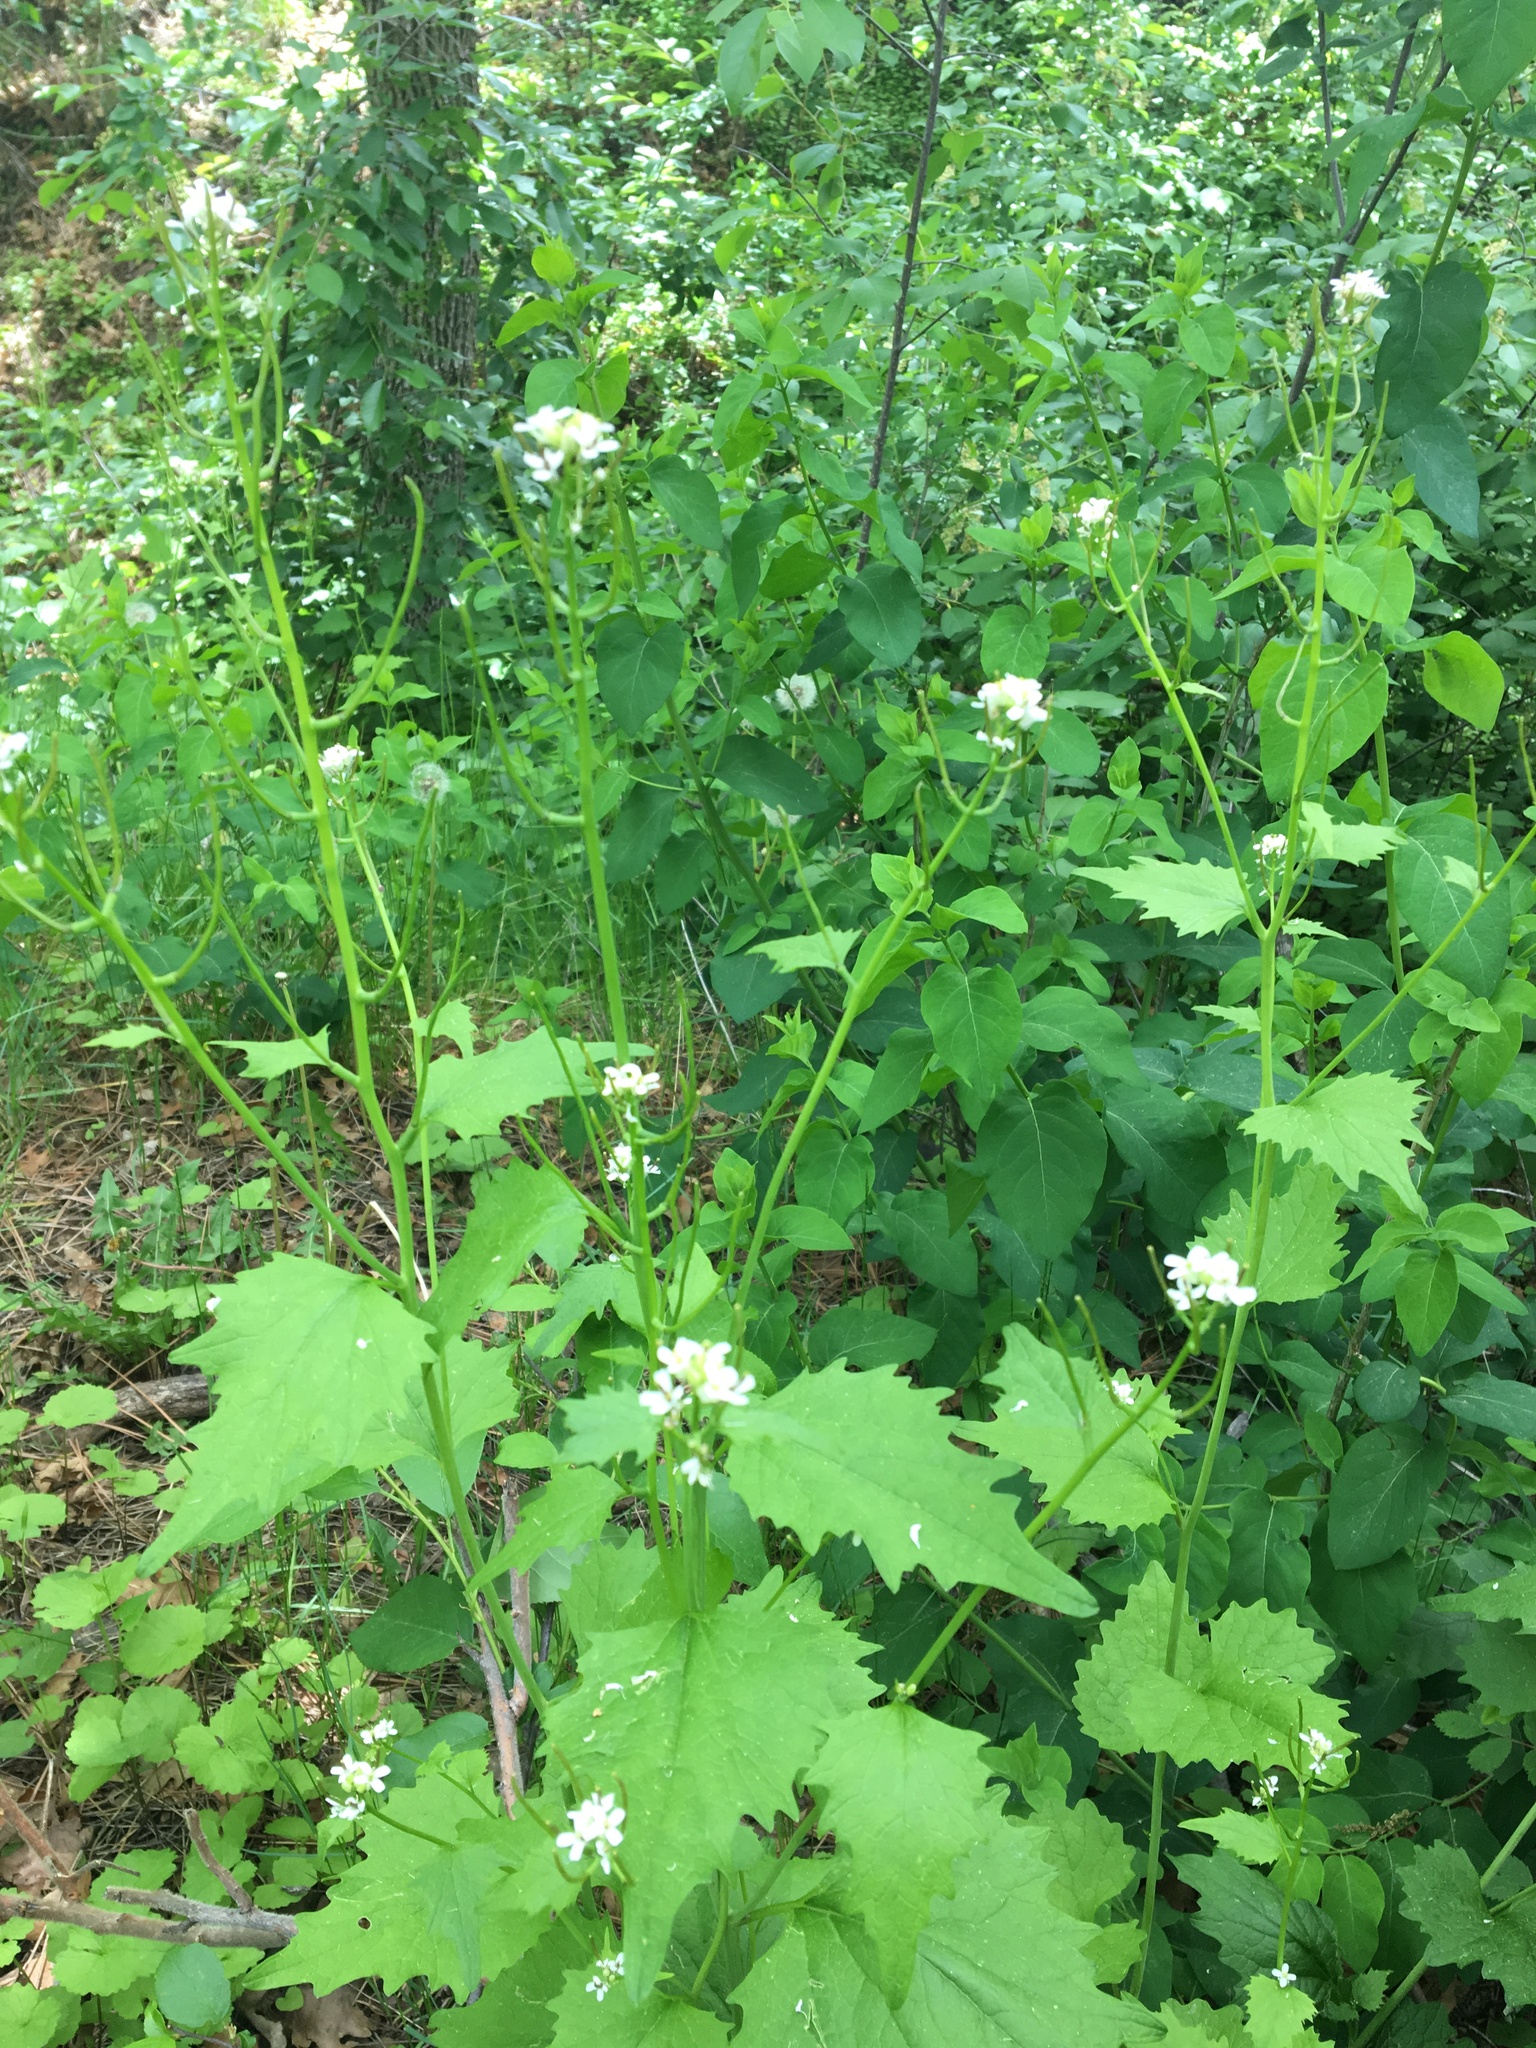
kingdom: Plantae
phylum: Tracheophyta
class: Magnoliopsida
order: Brassicales
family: Brassicaceae
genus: Alliaria
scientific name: Alliaria petiolata
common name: Garlic mustard
